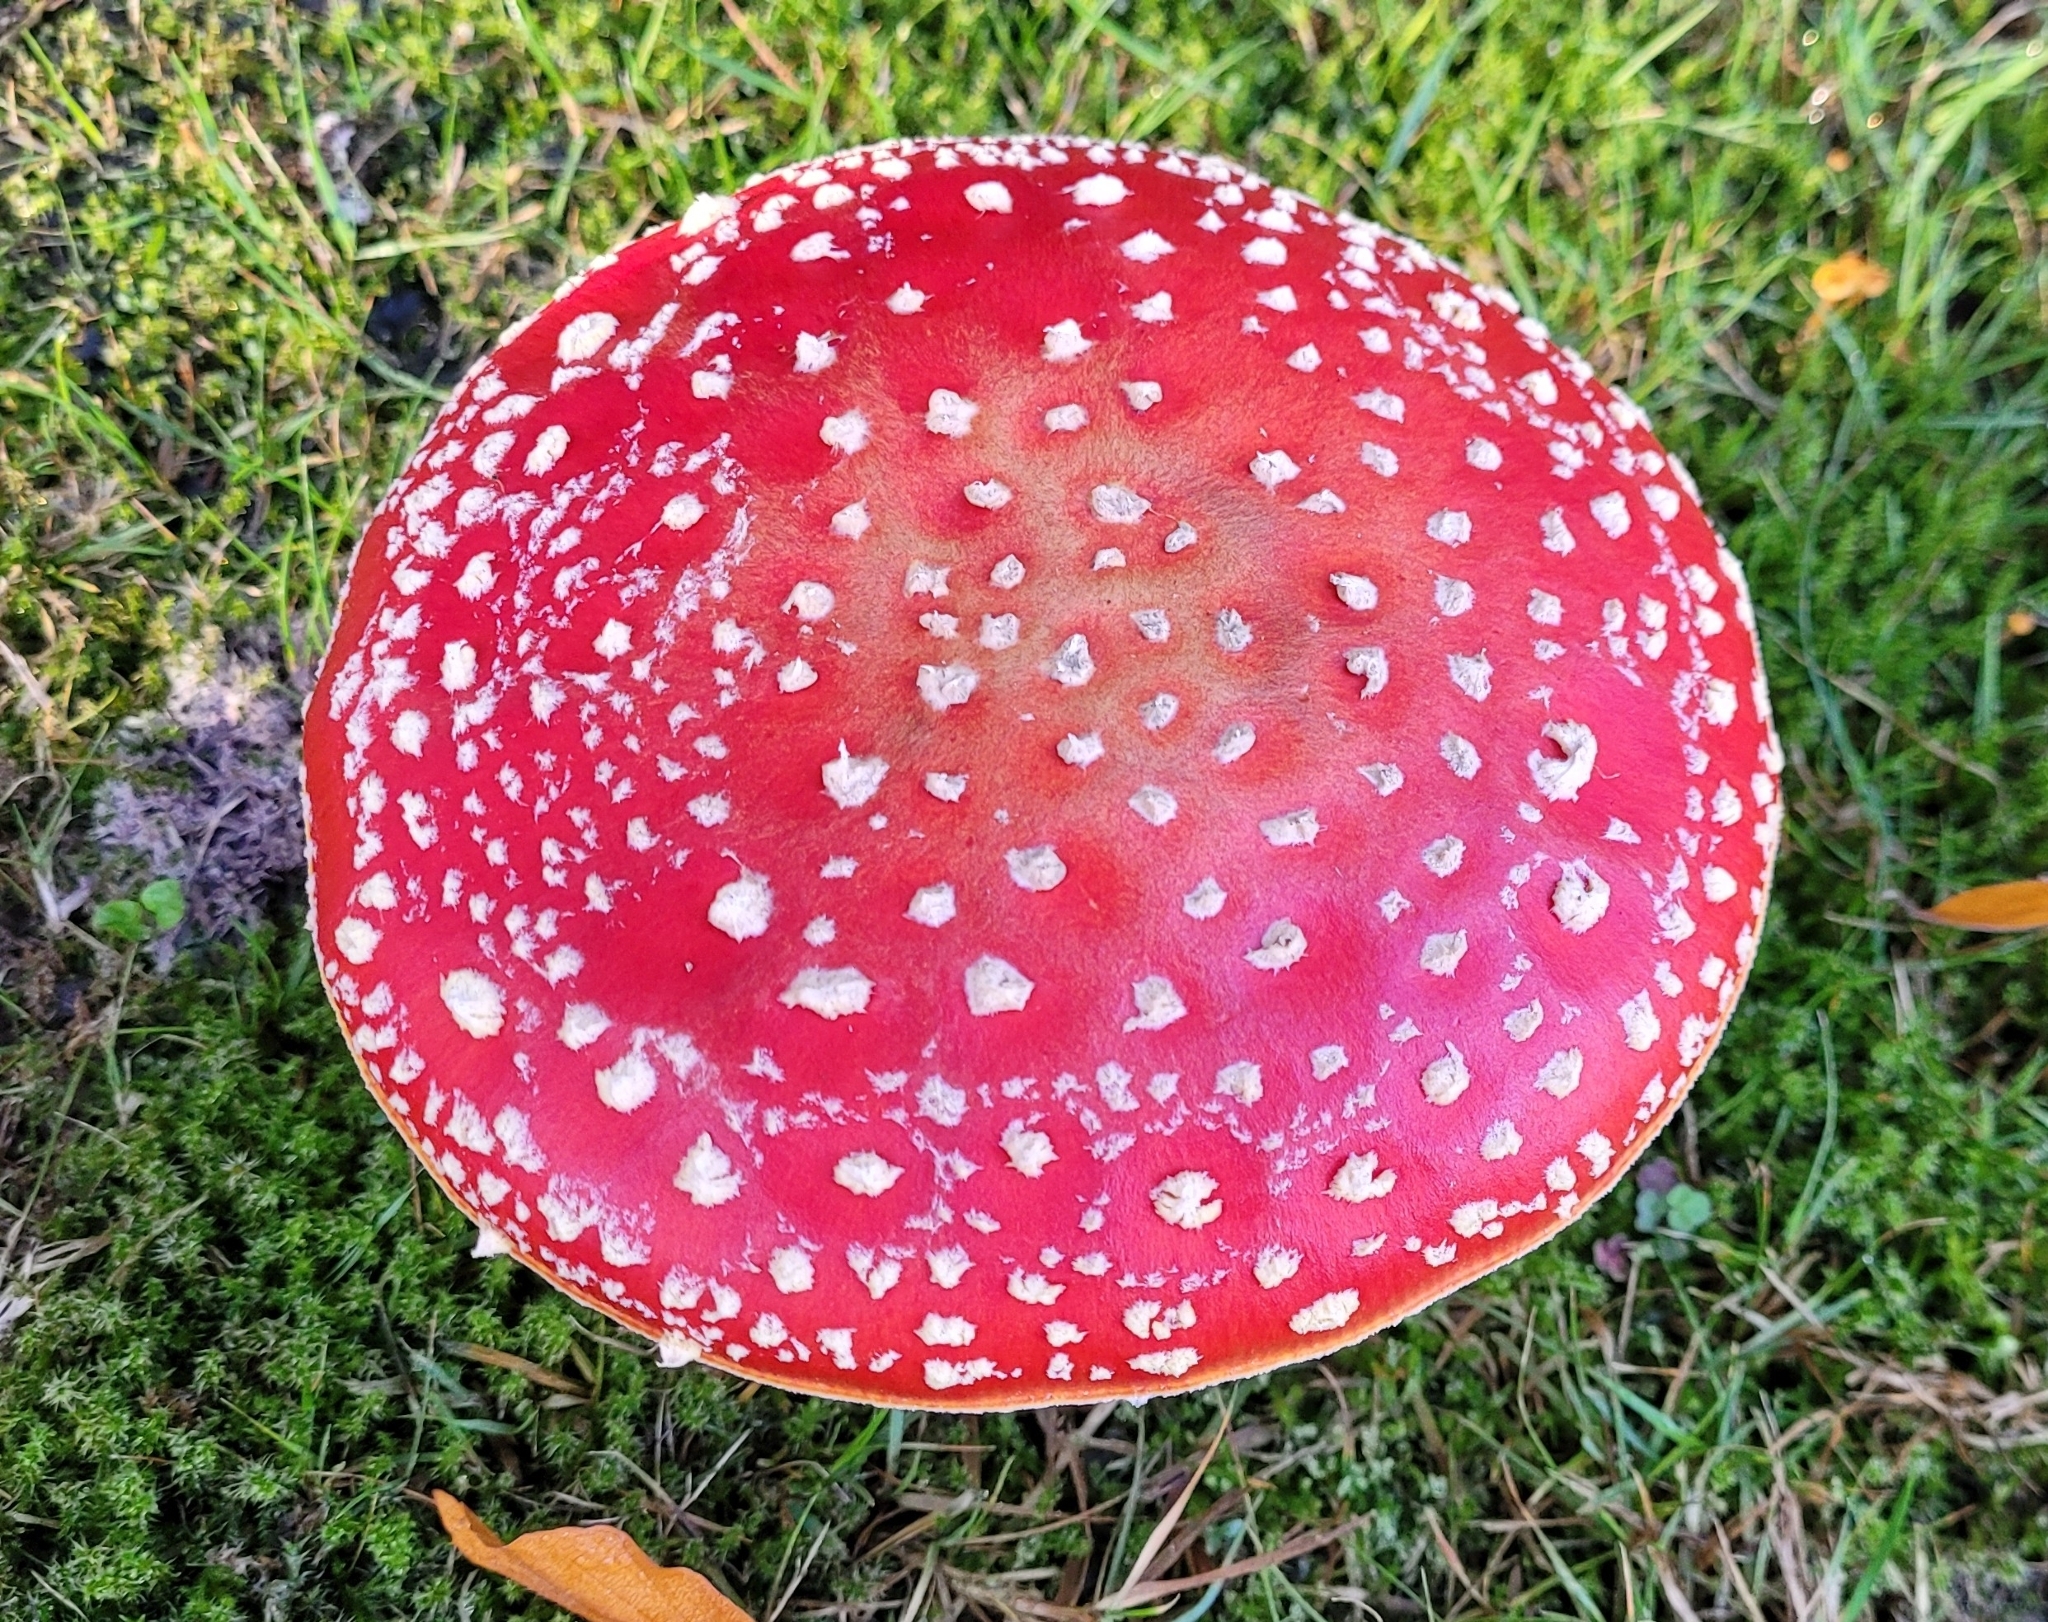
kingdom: Fungi
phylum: Basidiomycota
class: Agaricomycetes
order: Agaricales
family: Amanitaceae
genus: Amanita
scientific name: Amanita muscaria
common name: Fly agaric
